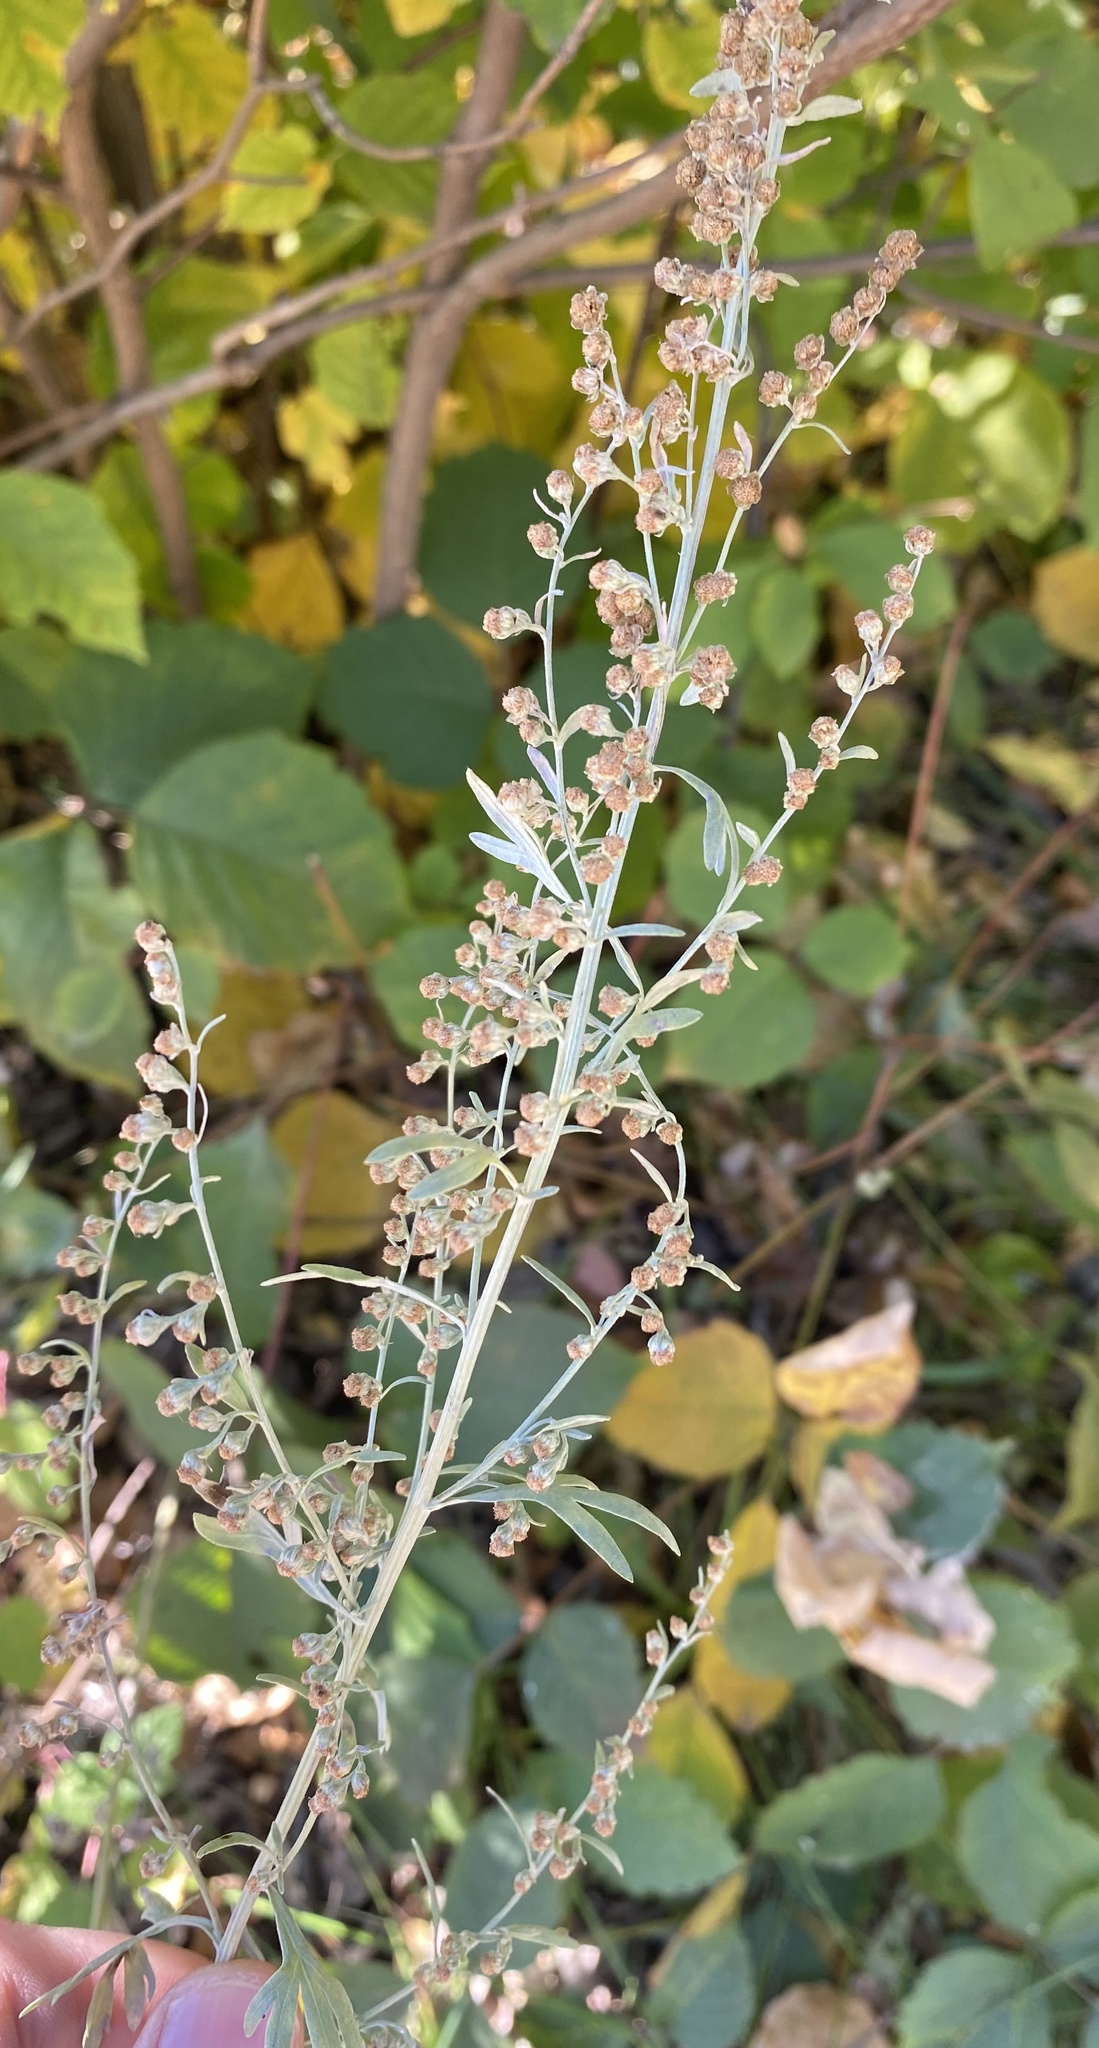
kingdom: Plantae
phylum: Tracheophyta
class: Magnoliopsida
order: Asterales
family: Asteraceae
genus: Artemisia
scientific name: Artemisia absinthium
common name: Wormwood
